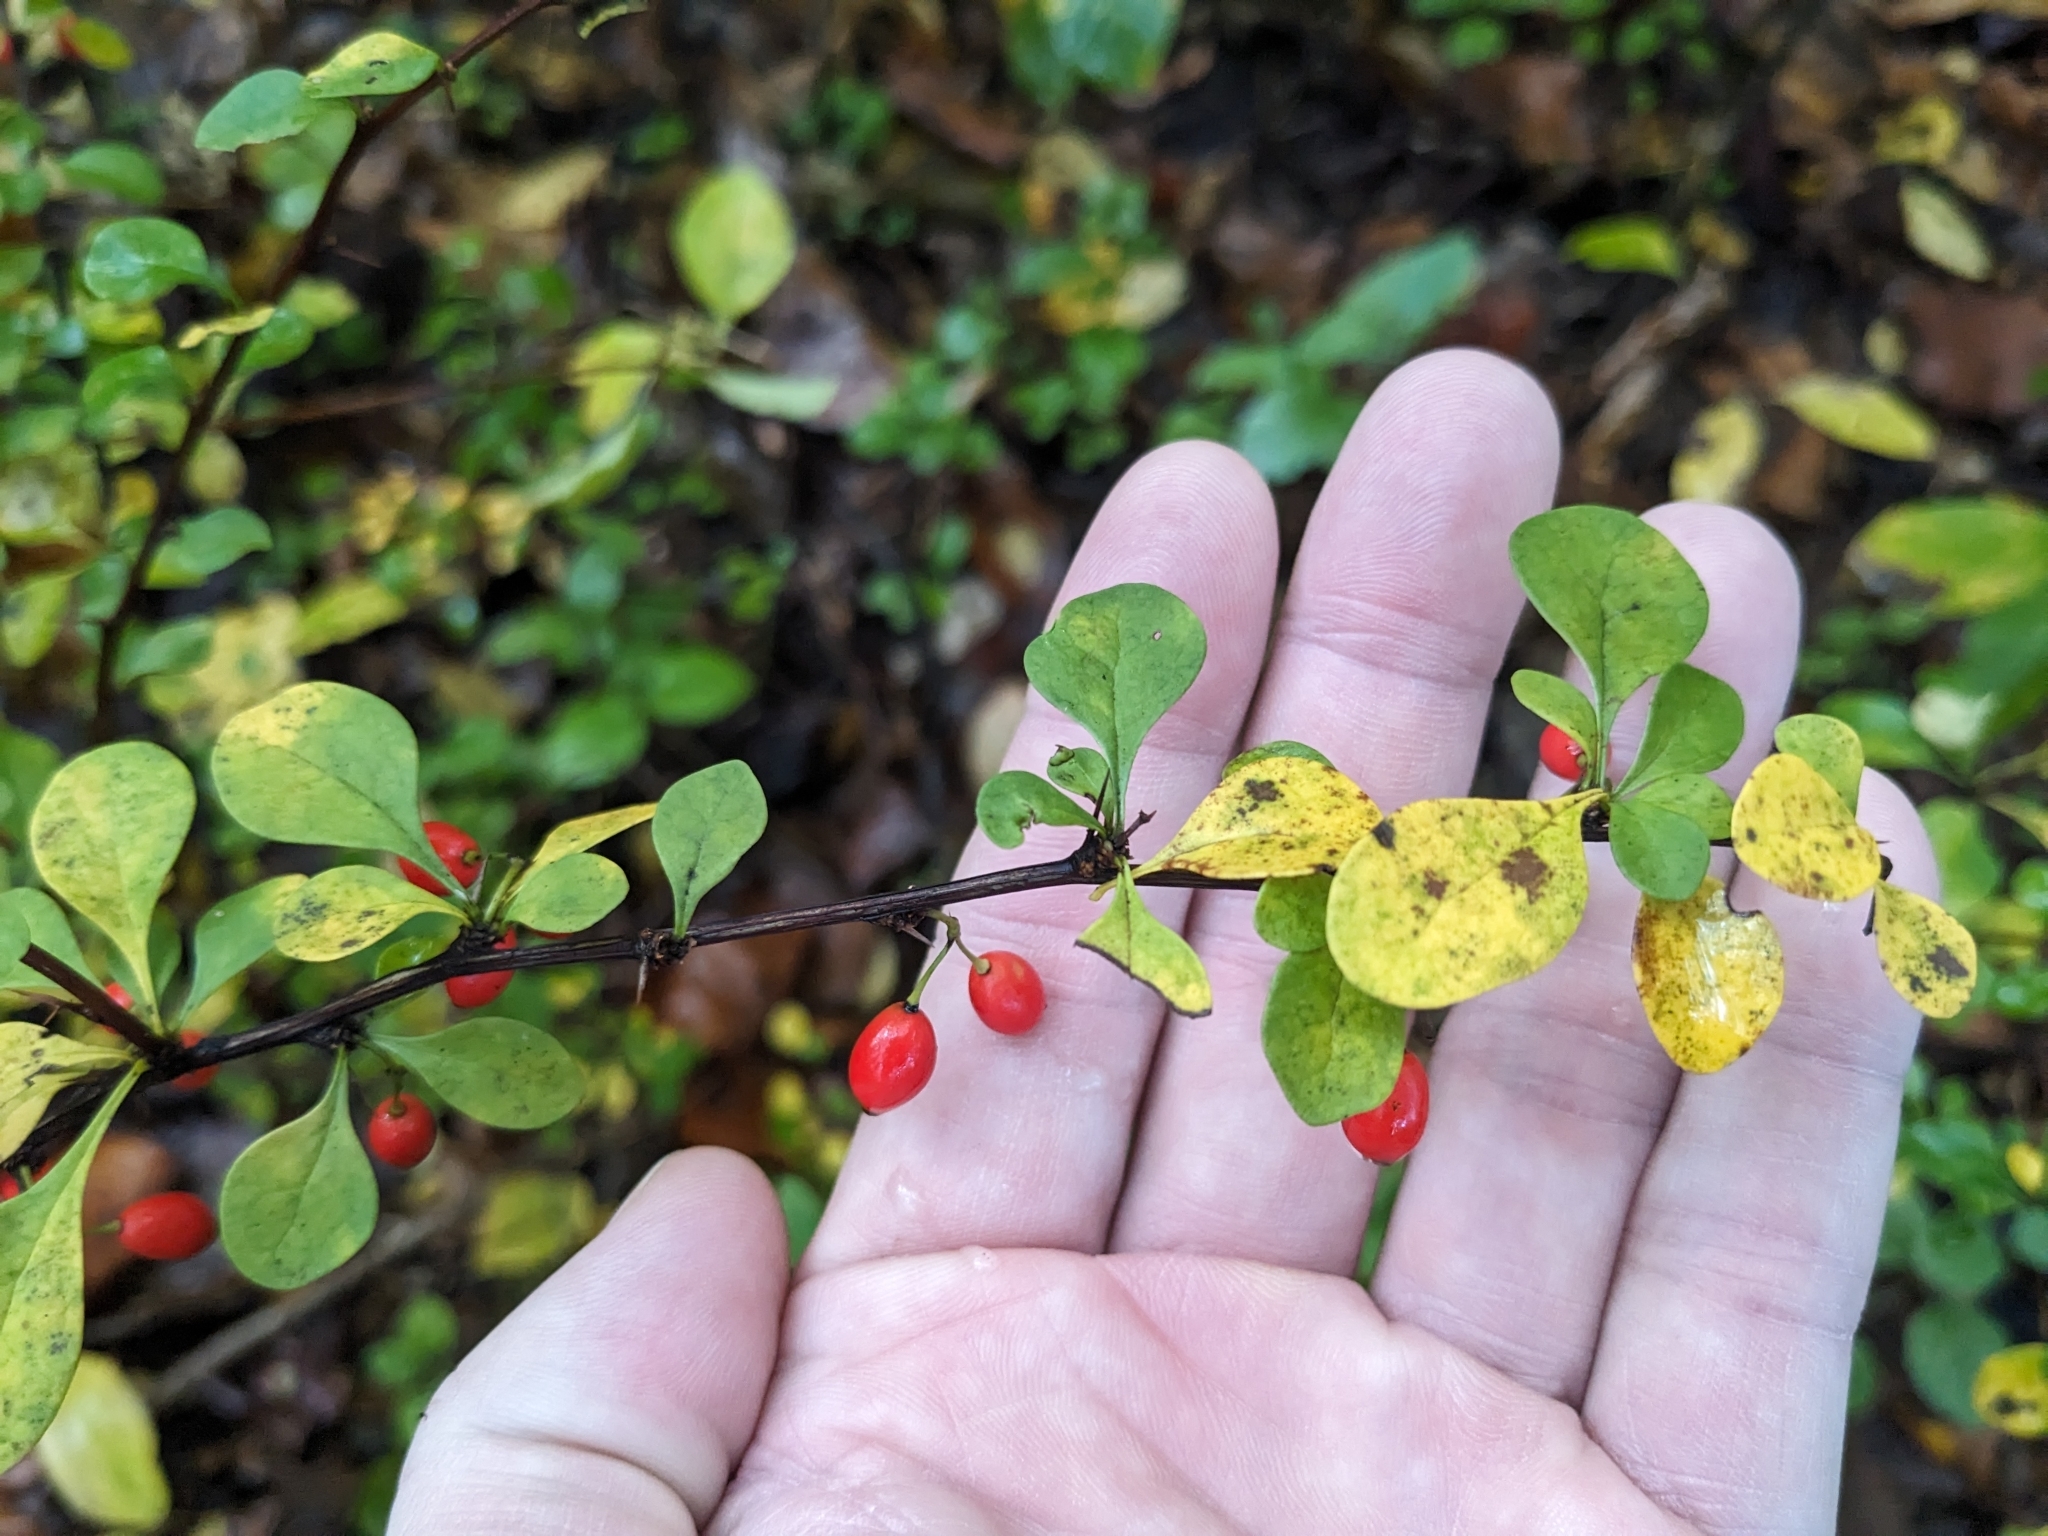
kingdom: Plantae
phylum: Tracheophyta
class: Magnoliopsida
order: Ranunculales
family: Berberidaceae
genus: Berberis
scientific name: Berberis thunbergii
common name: Japanese barberry
